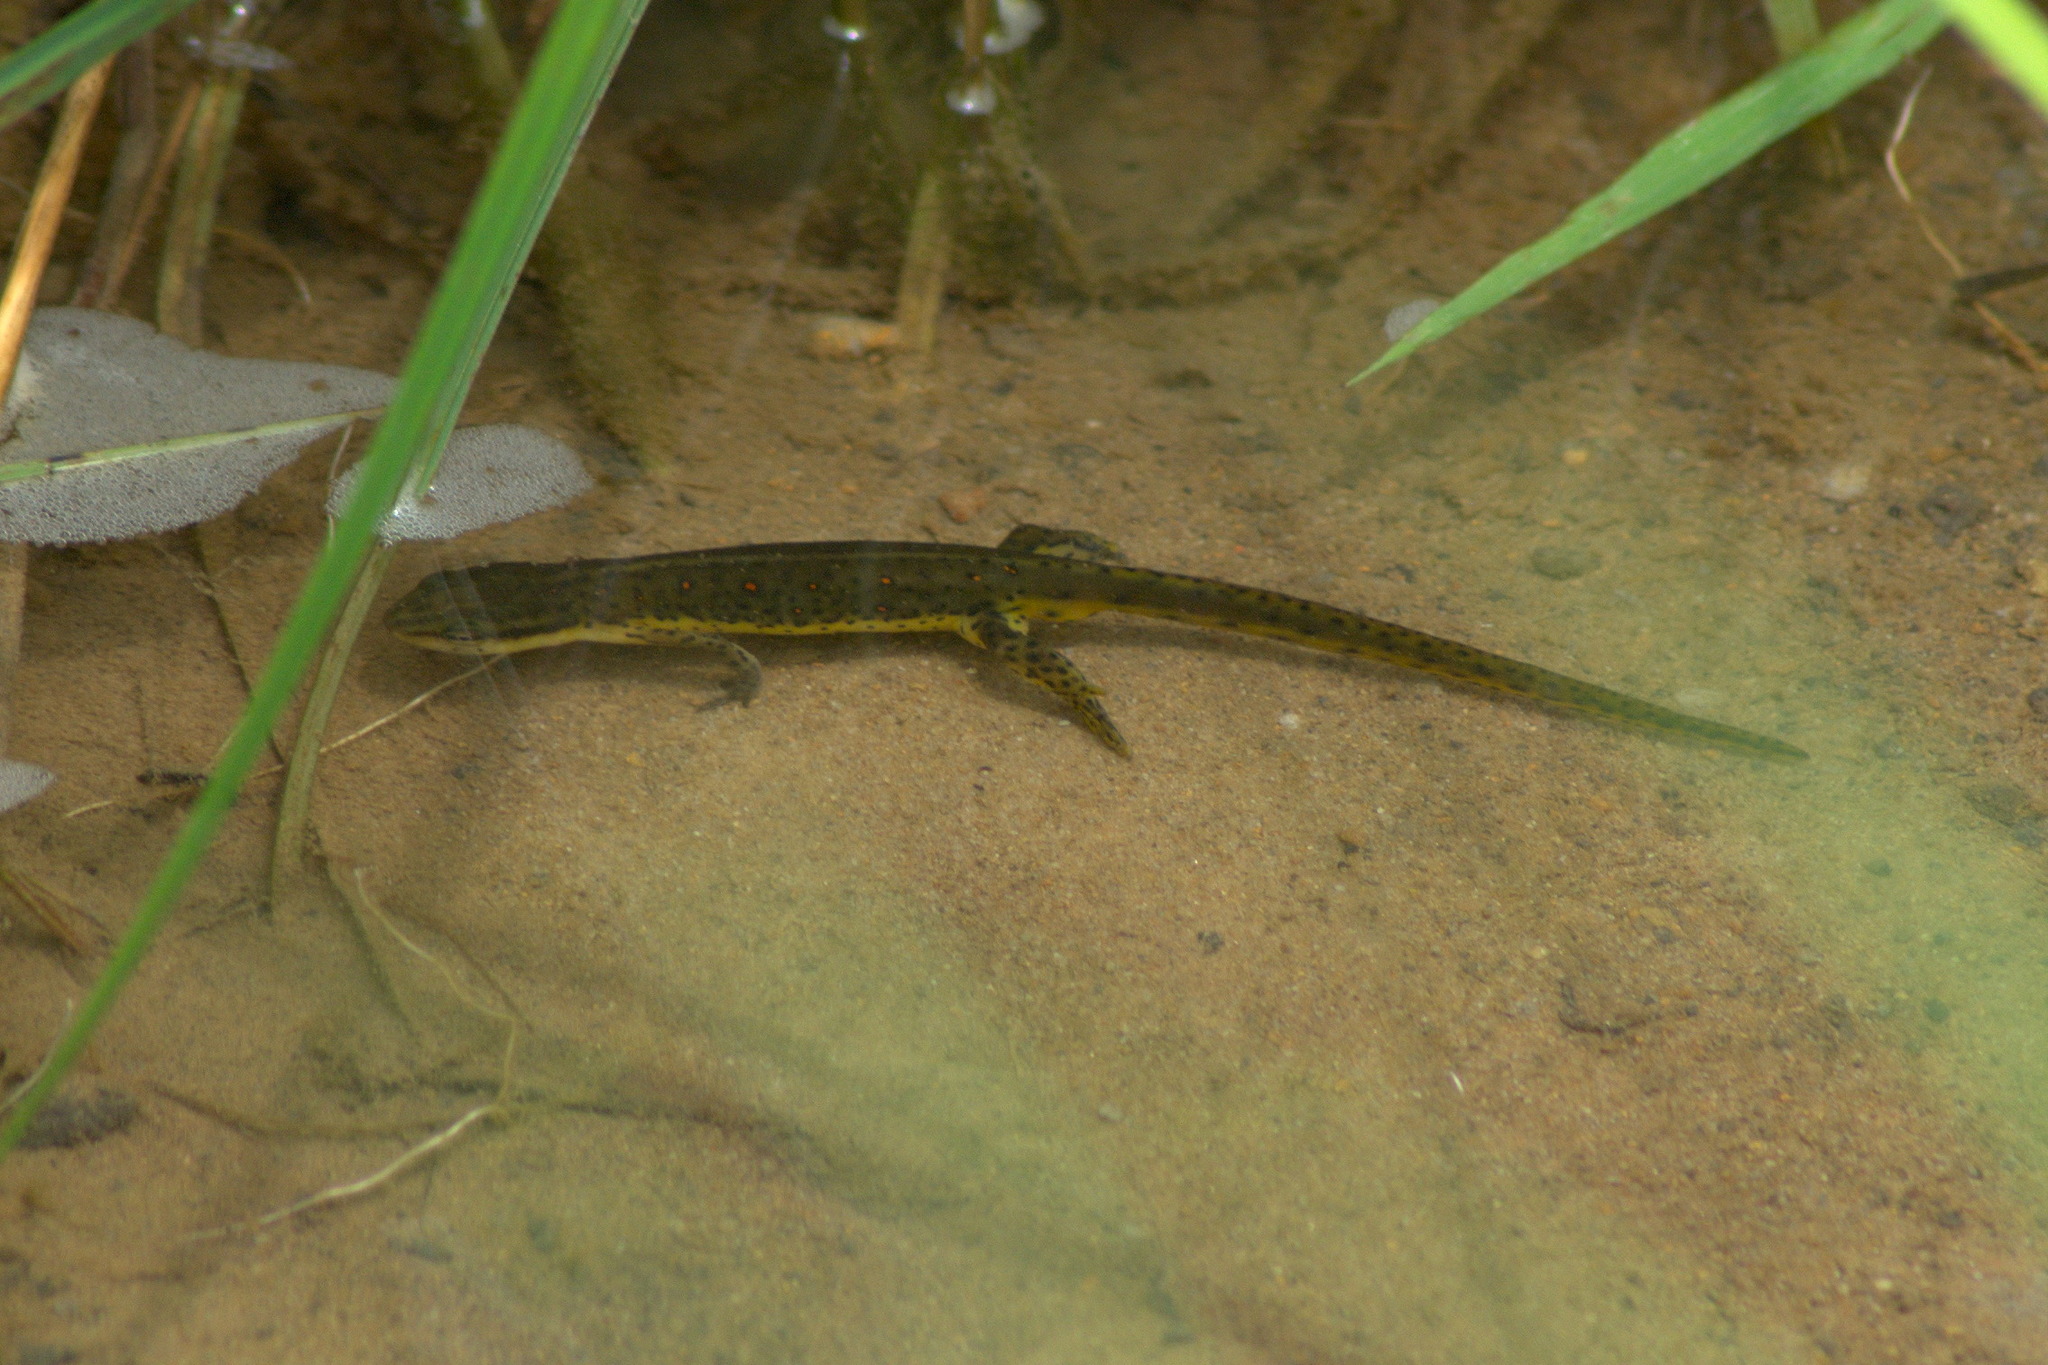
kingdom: Animalia
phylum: Chordata
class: Amphibia
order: Caudata
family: Salamandridae
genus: Notophthalmus
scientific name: Notophthalmus viridescens
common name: Eastern newt
